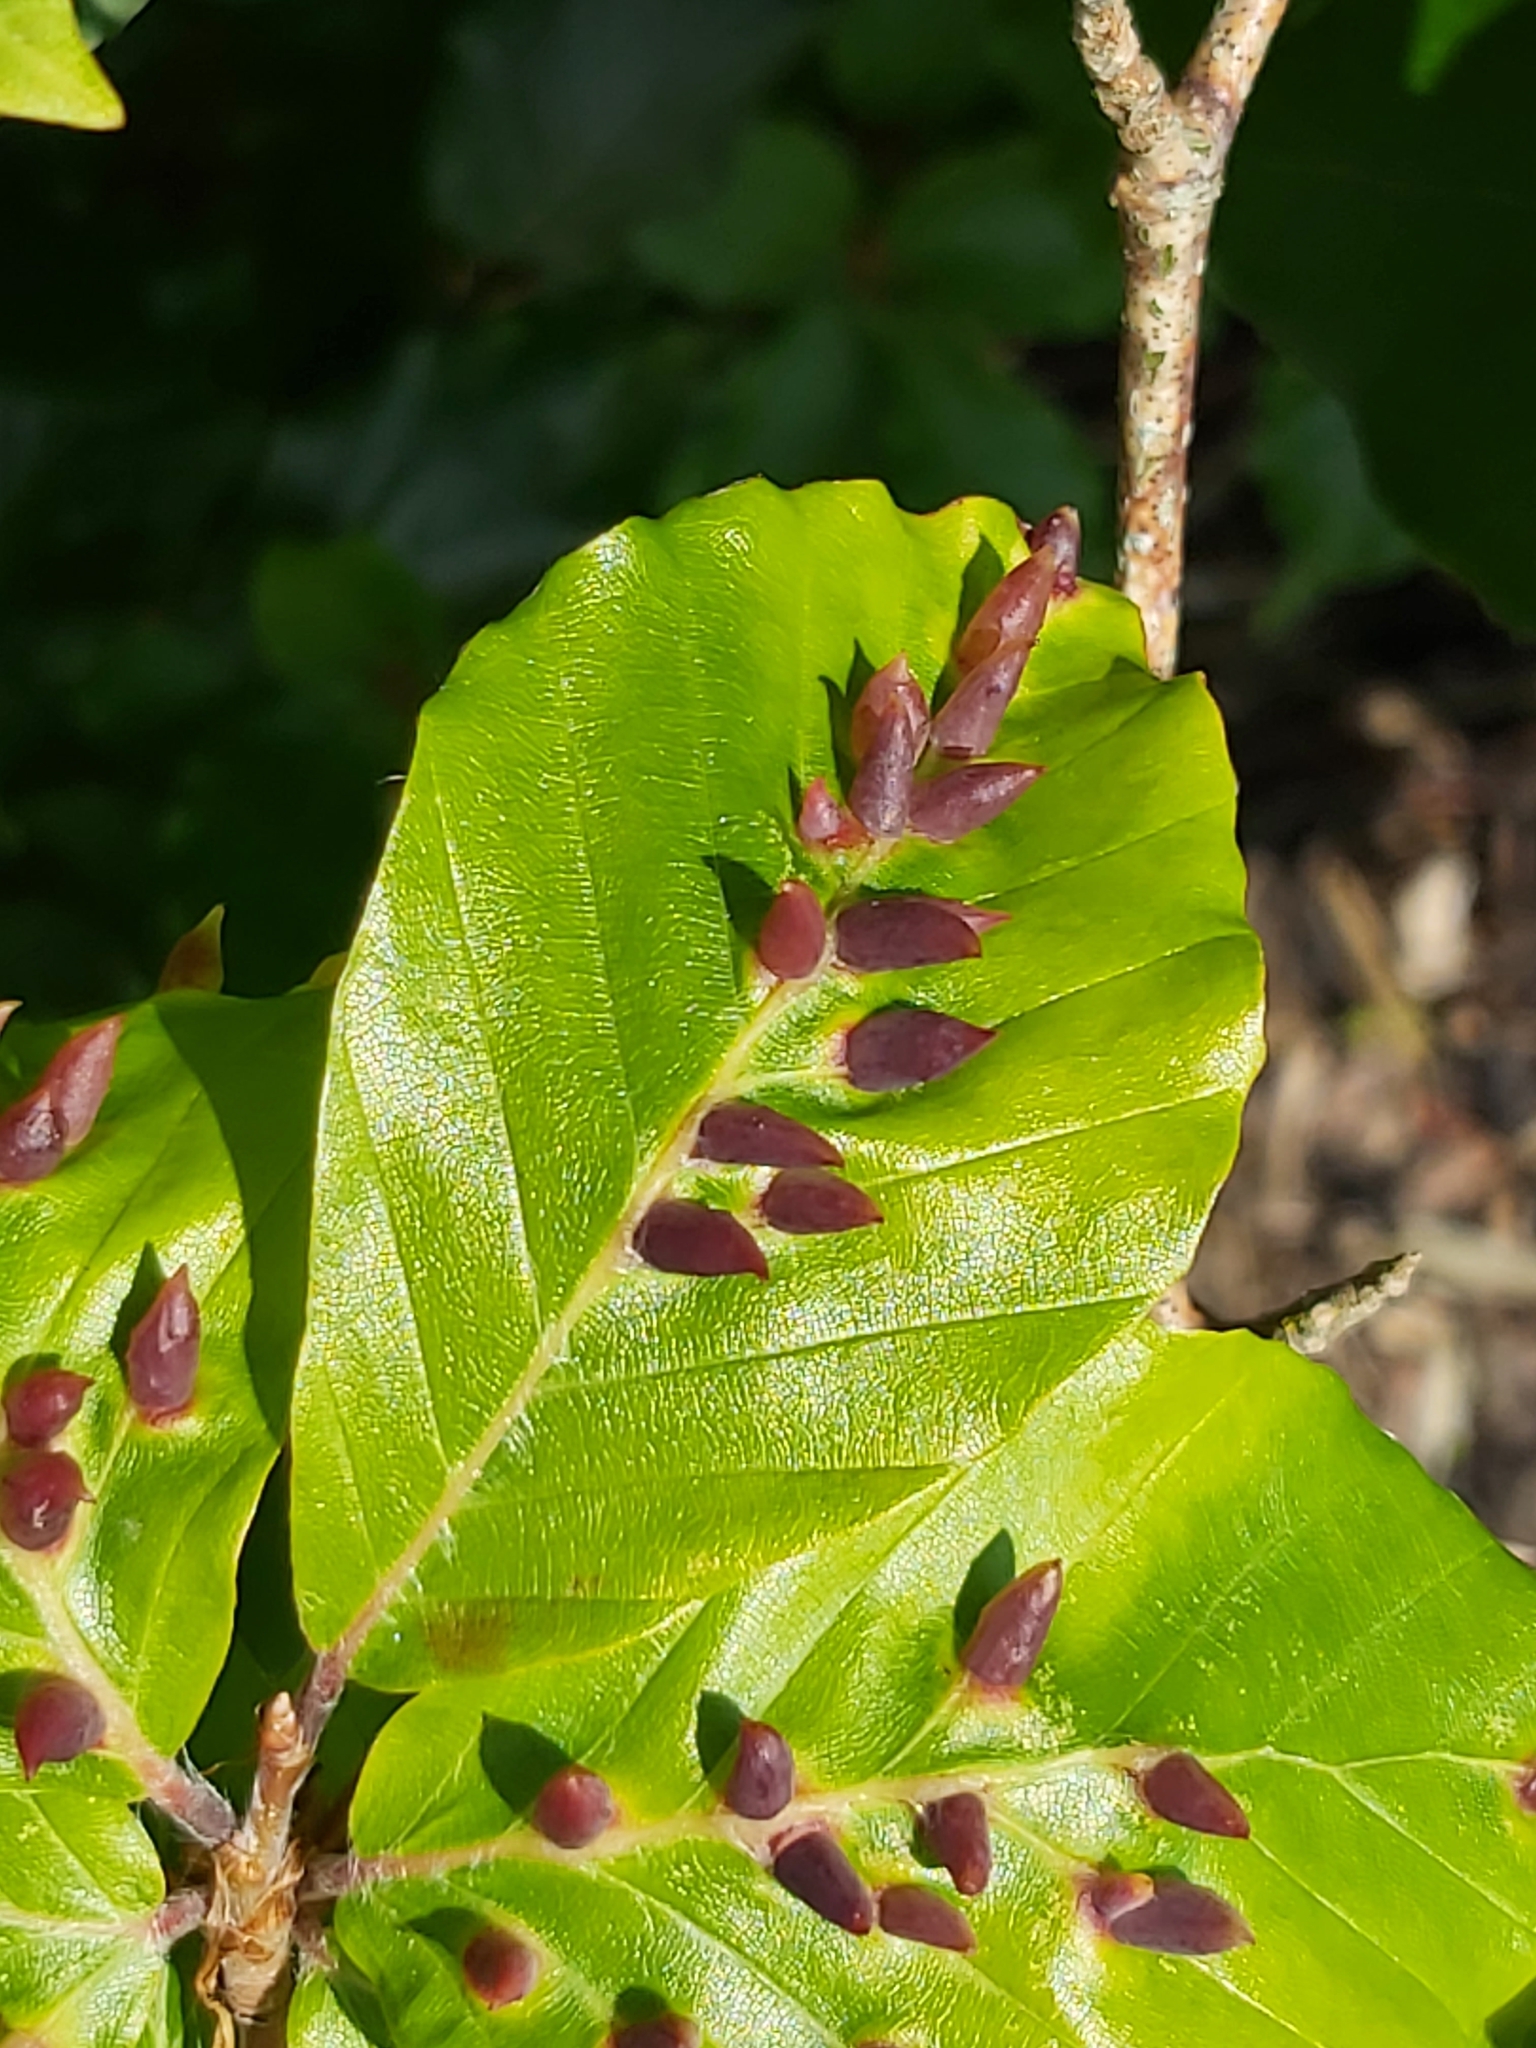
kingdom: Animalia
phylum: Arthropoda
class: Insecta
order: Diptera
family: Cecidomyiidae
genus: Mikiola
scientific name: Mikiola fagi
